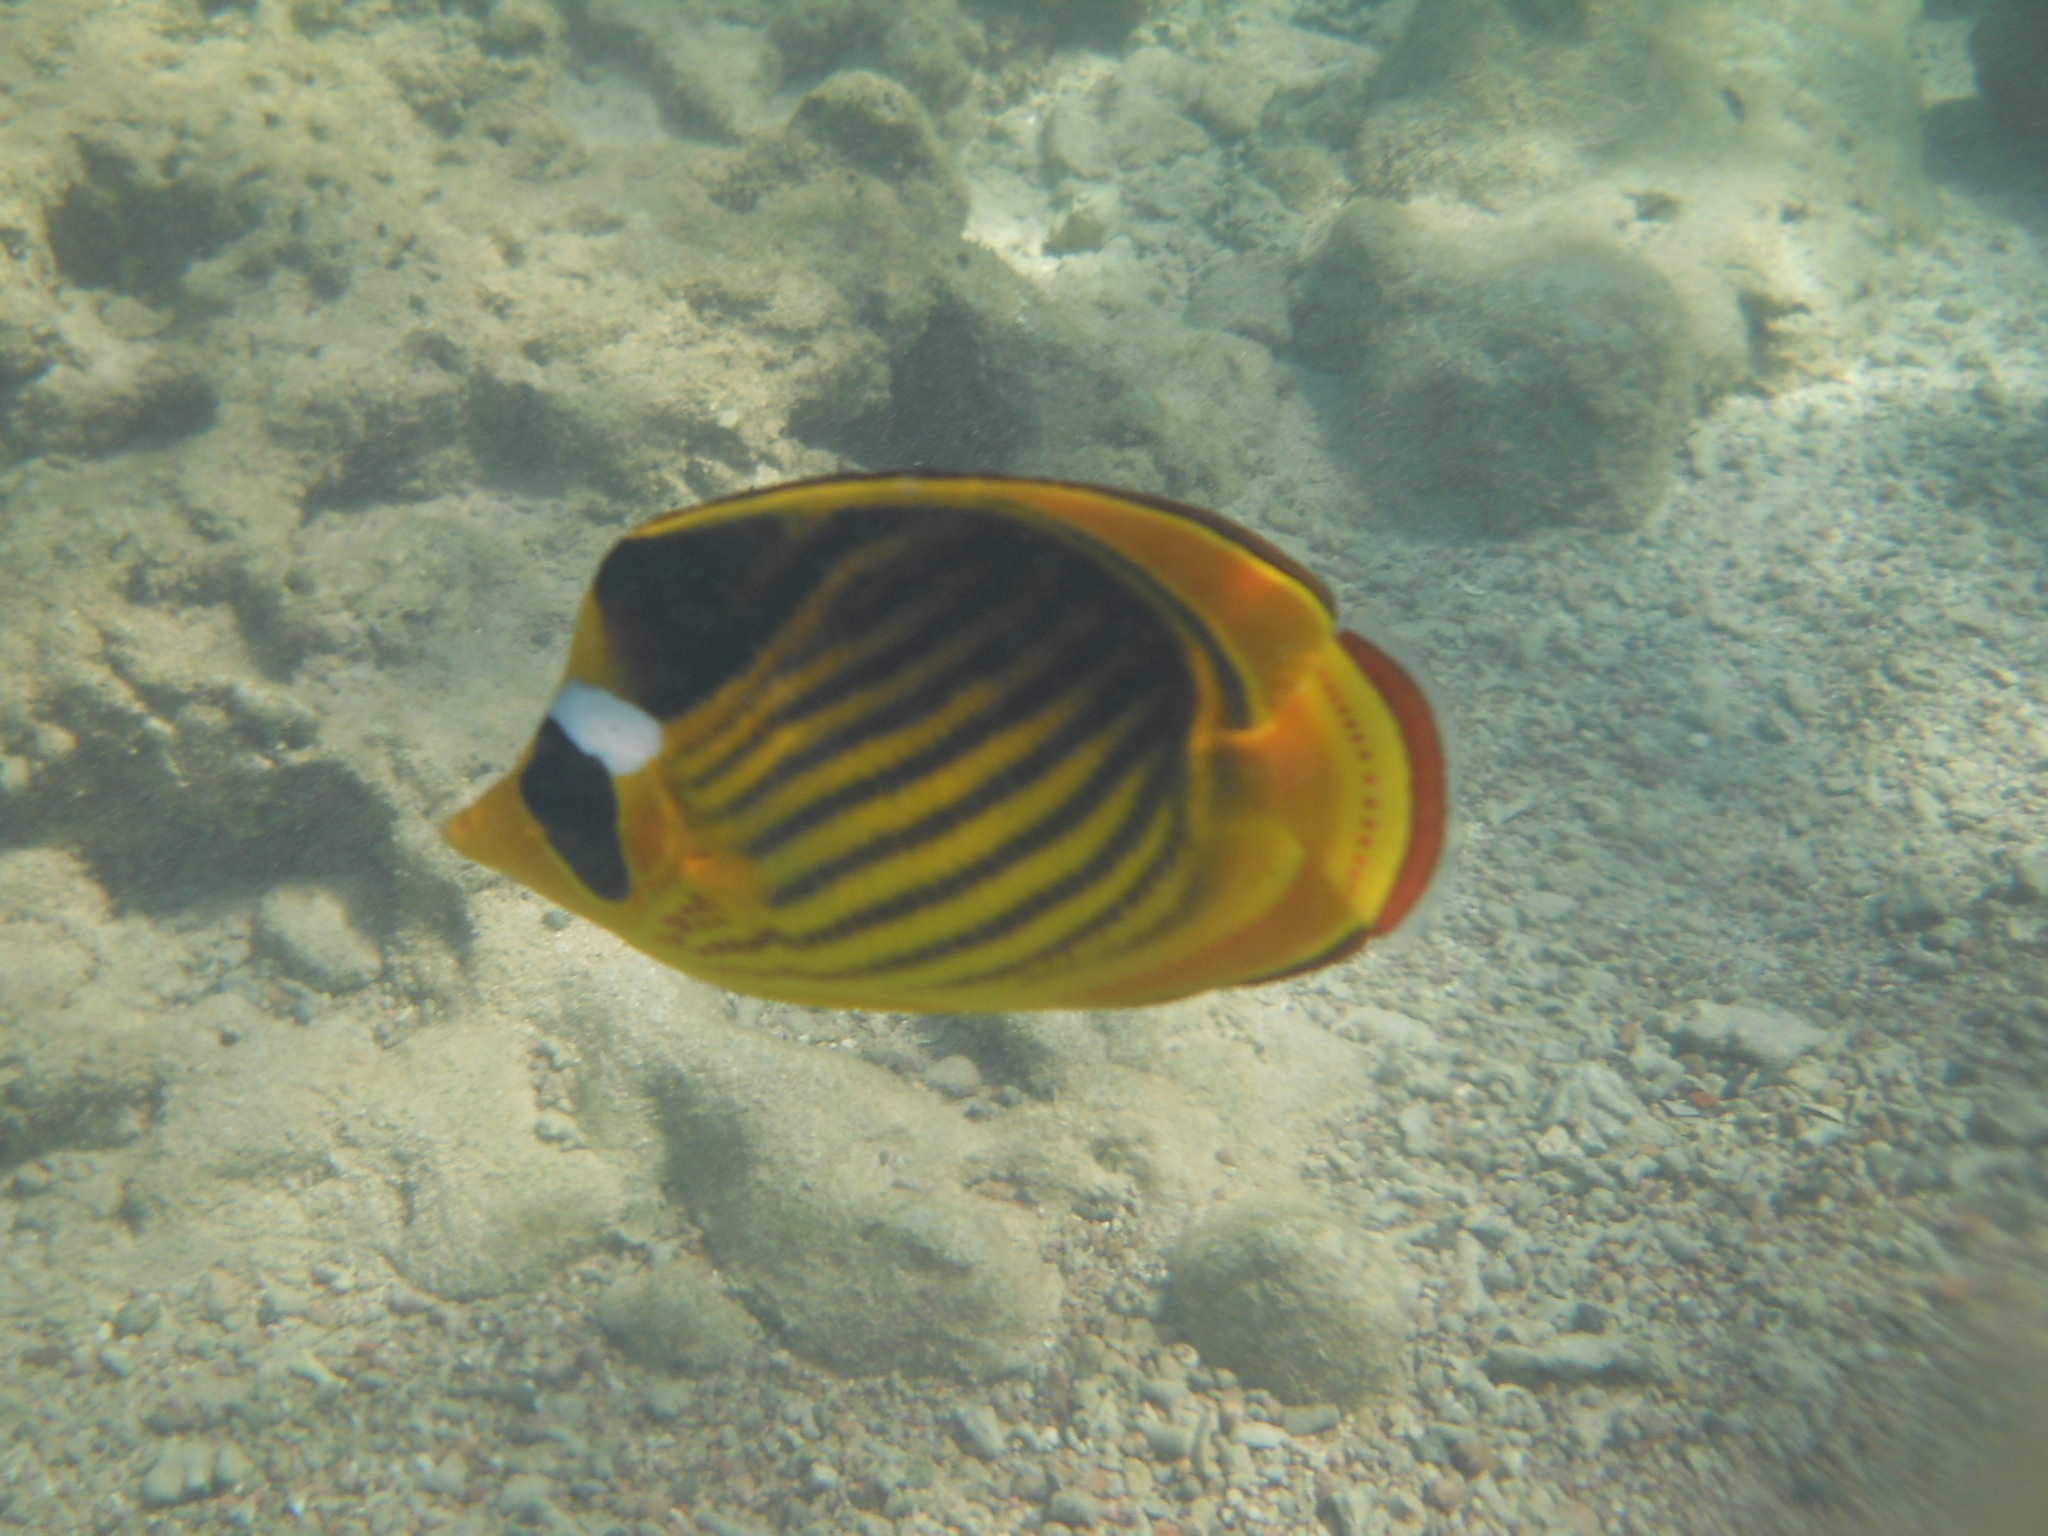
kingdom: Animalia
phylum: Chordata
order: Perciformes
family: Chaetodontidae
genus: Chaetodon
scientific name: Chaetodon fasciatus
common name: Diagonal butterflyfish
